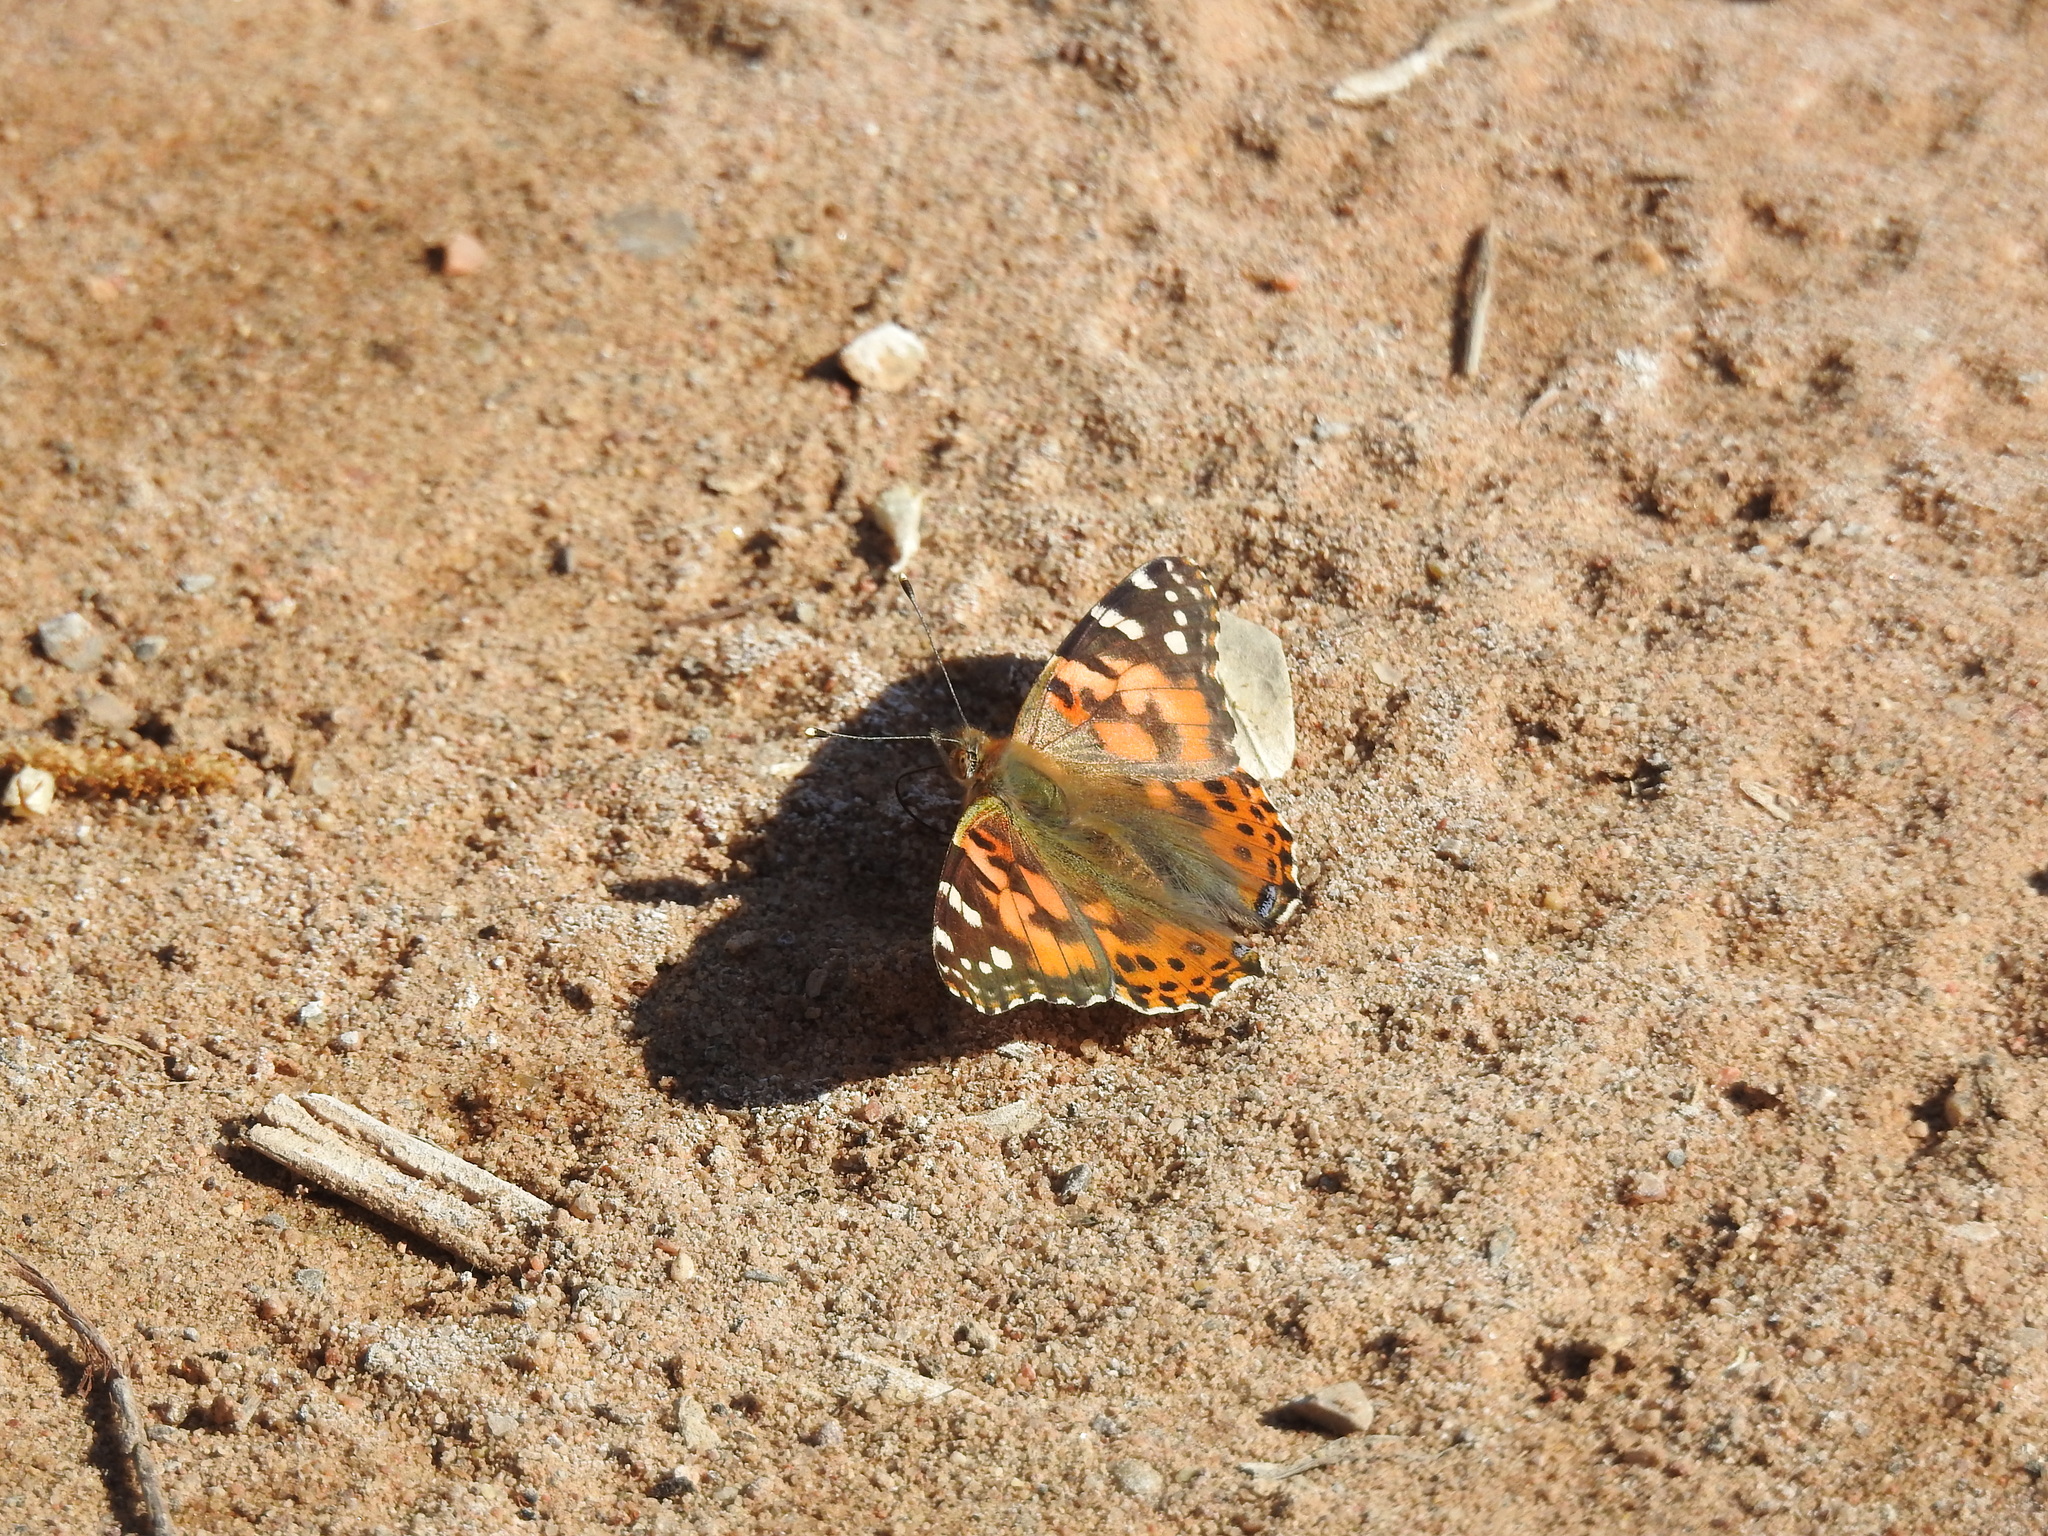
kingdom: Animalia
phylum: Arthropoda
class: Insecta
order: Lepidoptera
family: Nymphalidae
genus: Vanessa
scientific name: Vanessa cardui
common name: Painted lady
